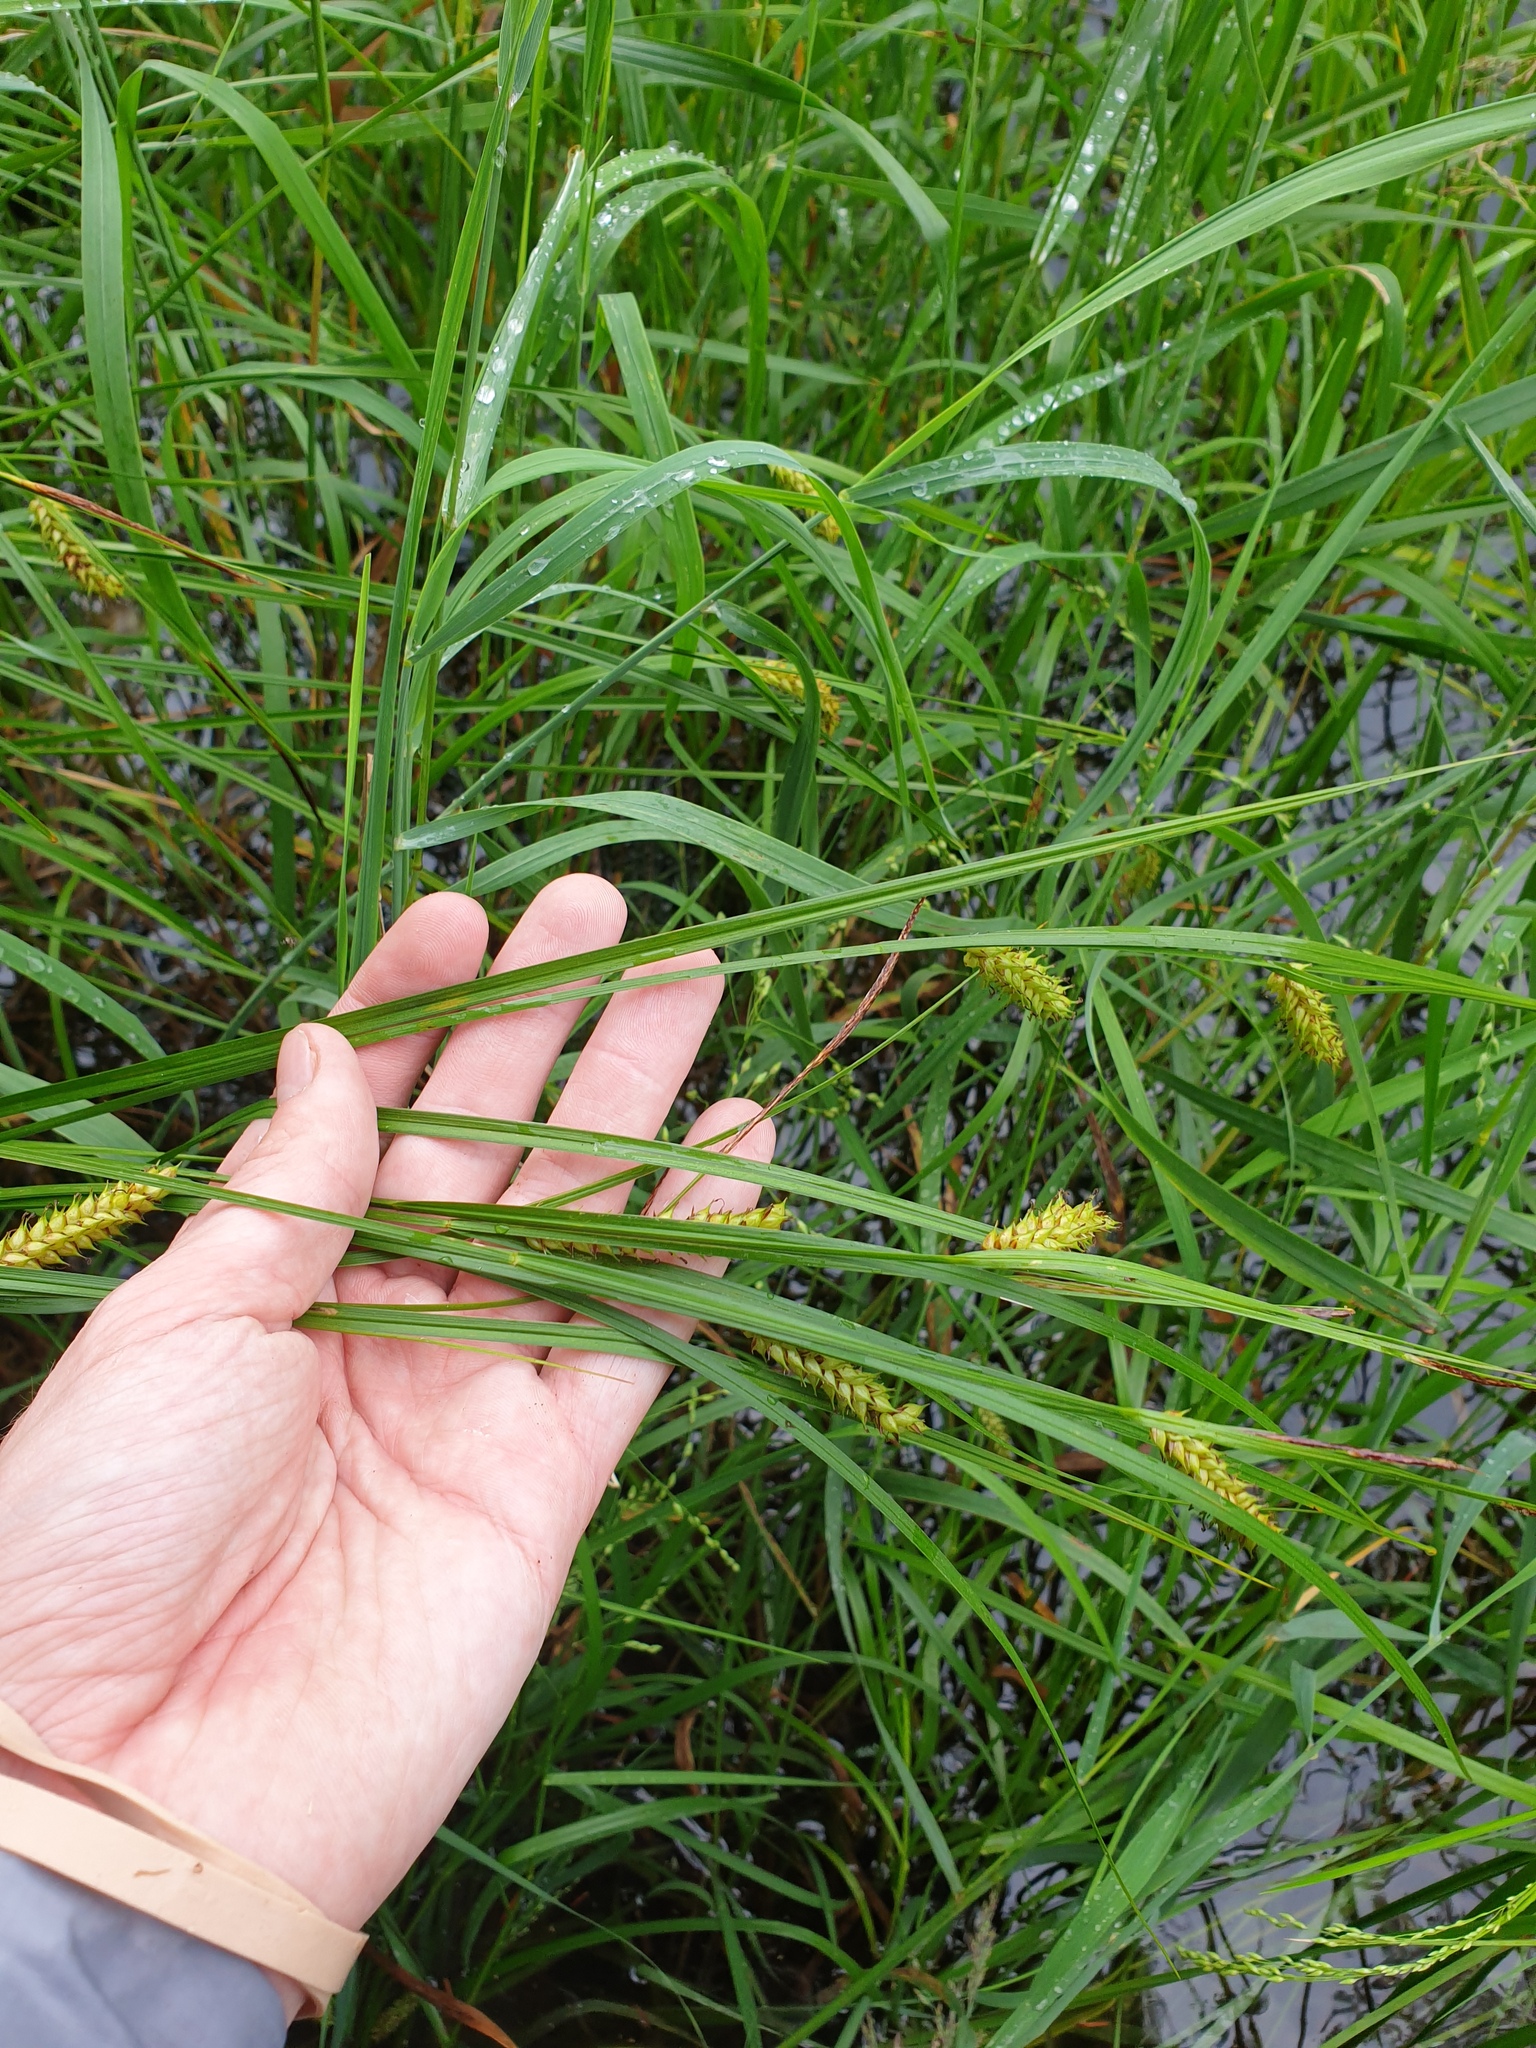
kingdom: Plantae
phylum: Tracheophyta
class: Liliopsida
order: Poales
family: Cyperaceae
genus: Carex
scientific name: Carex vesicaria
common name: Bladder-sedge
